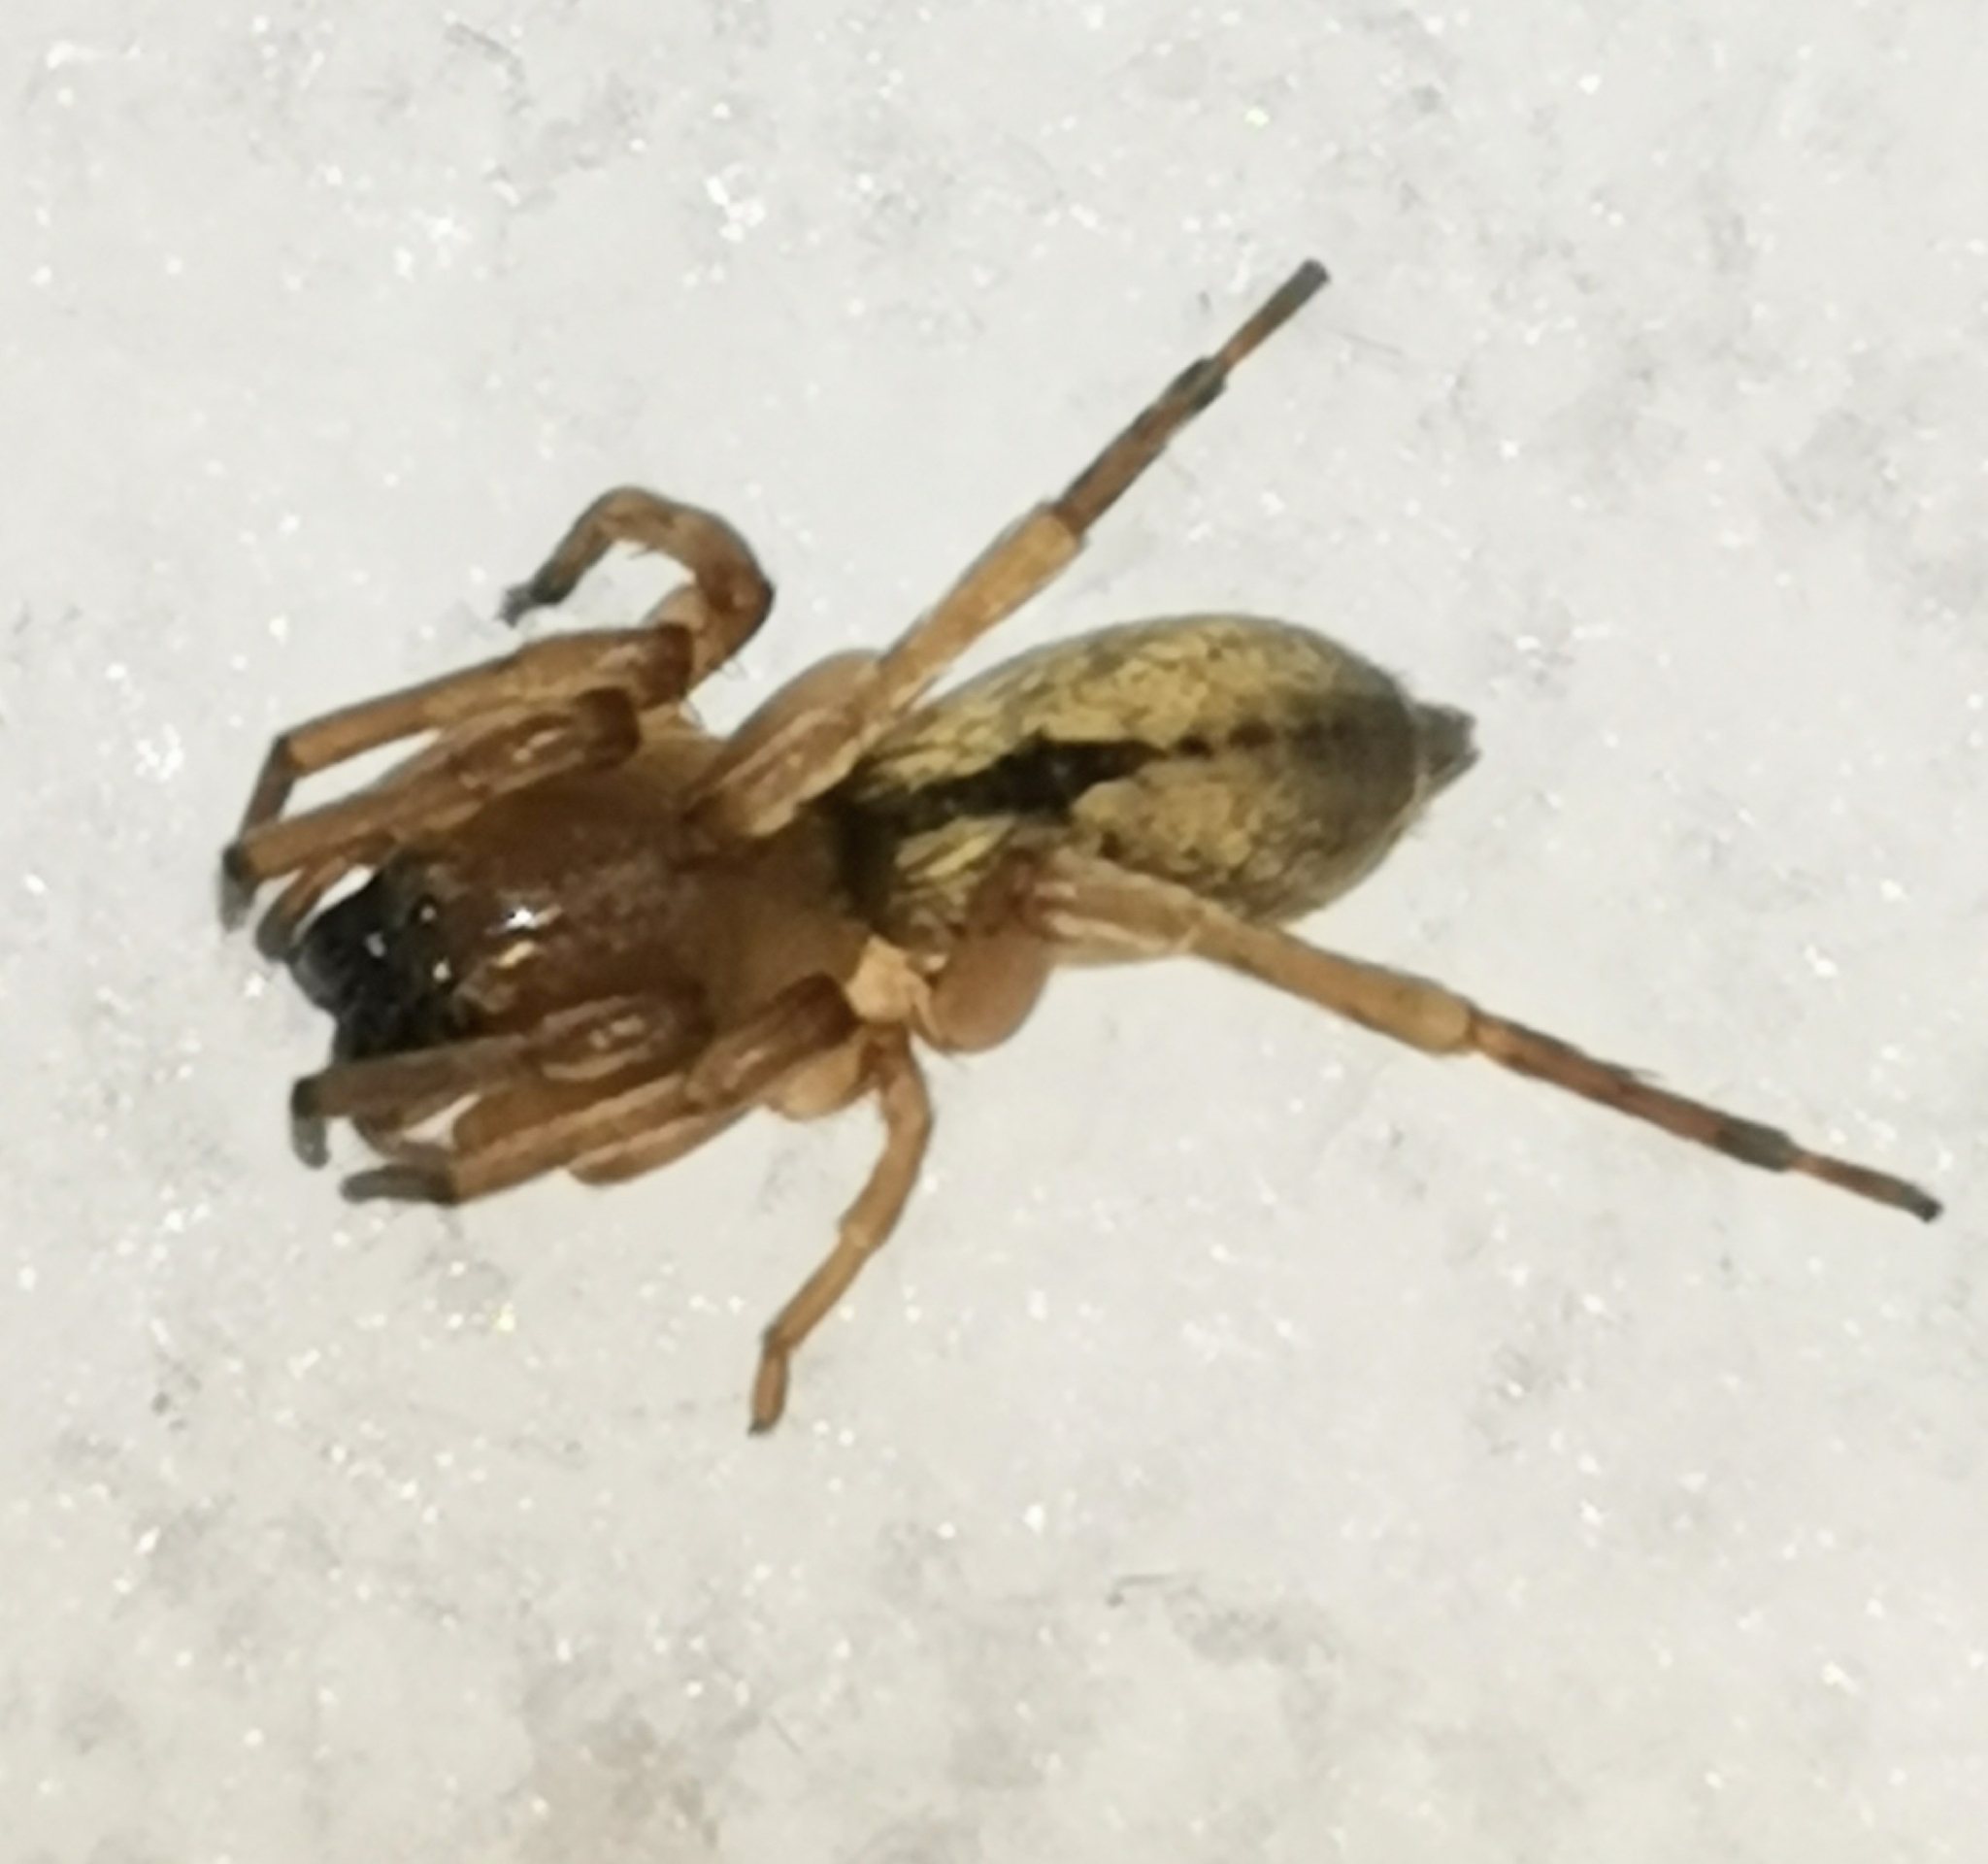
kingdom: Animalia
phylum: Arthropoda
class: Arachnida
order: Araneae
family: Clubionidae
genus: Clubiona
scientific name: Clubiona subsultans
